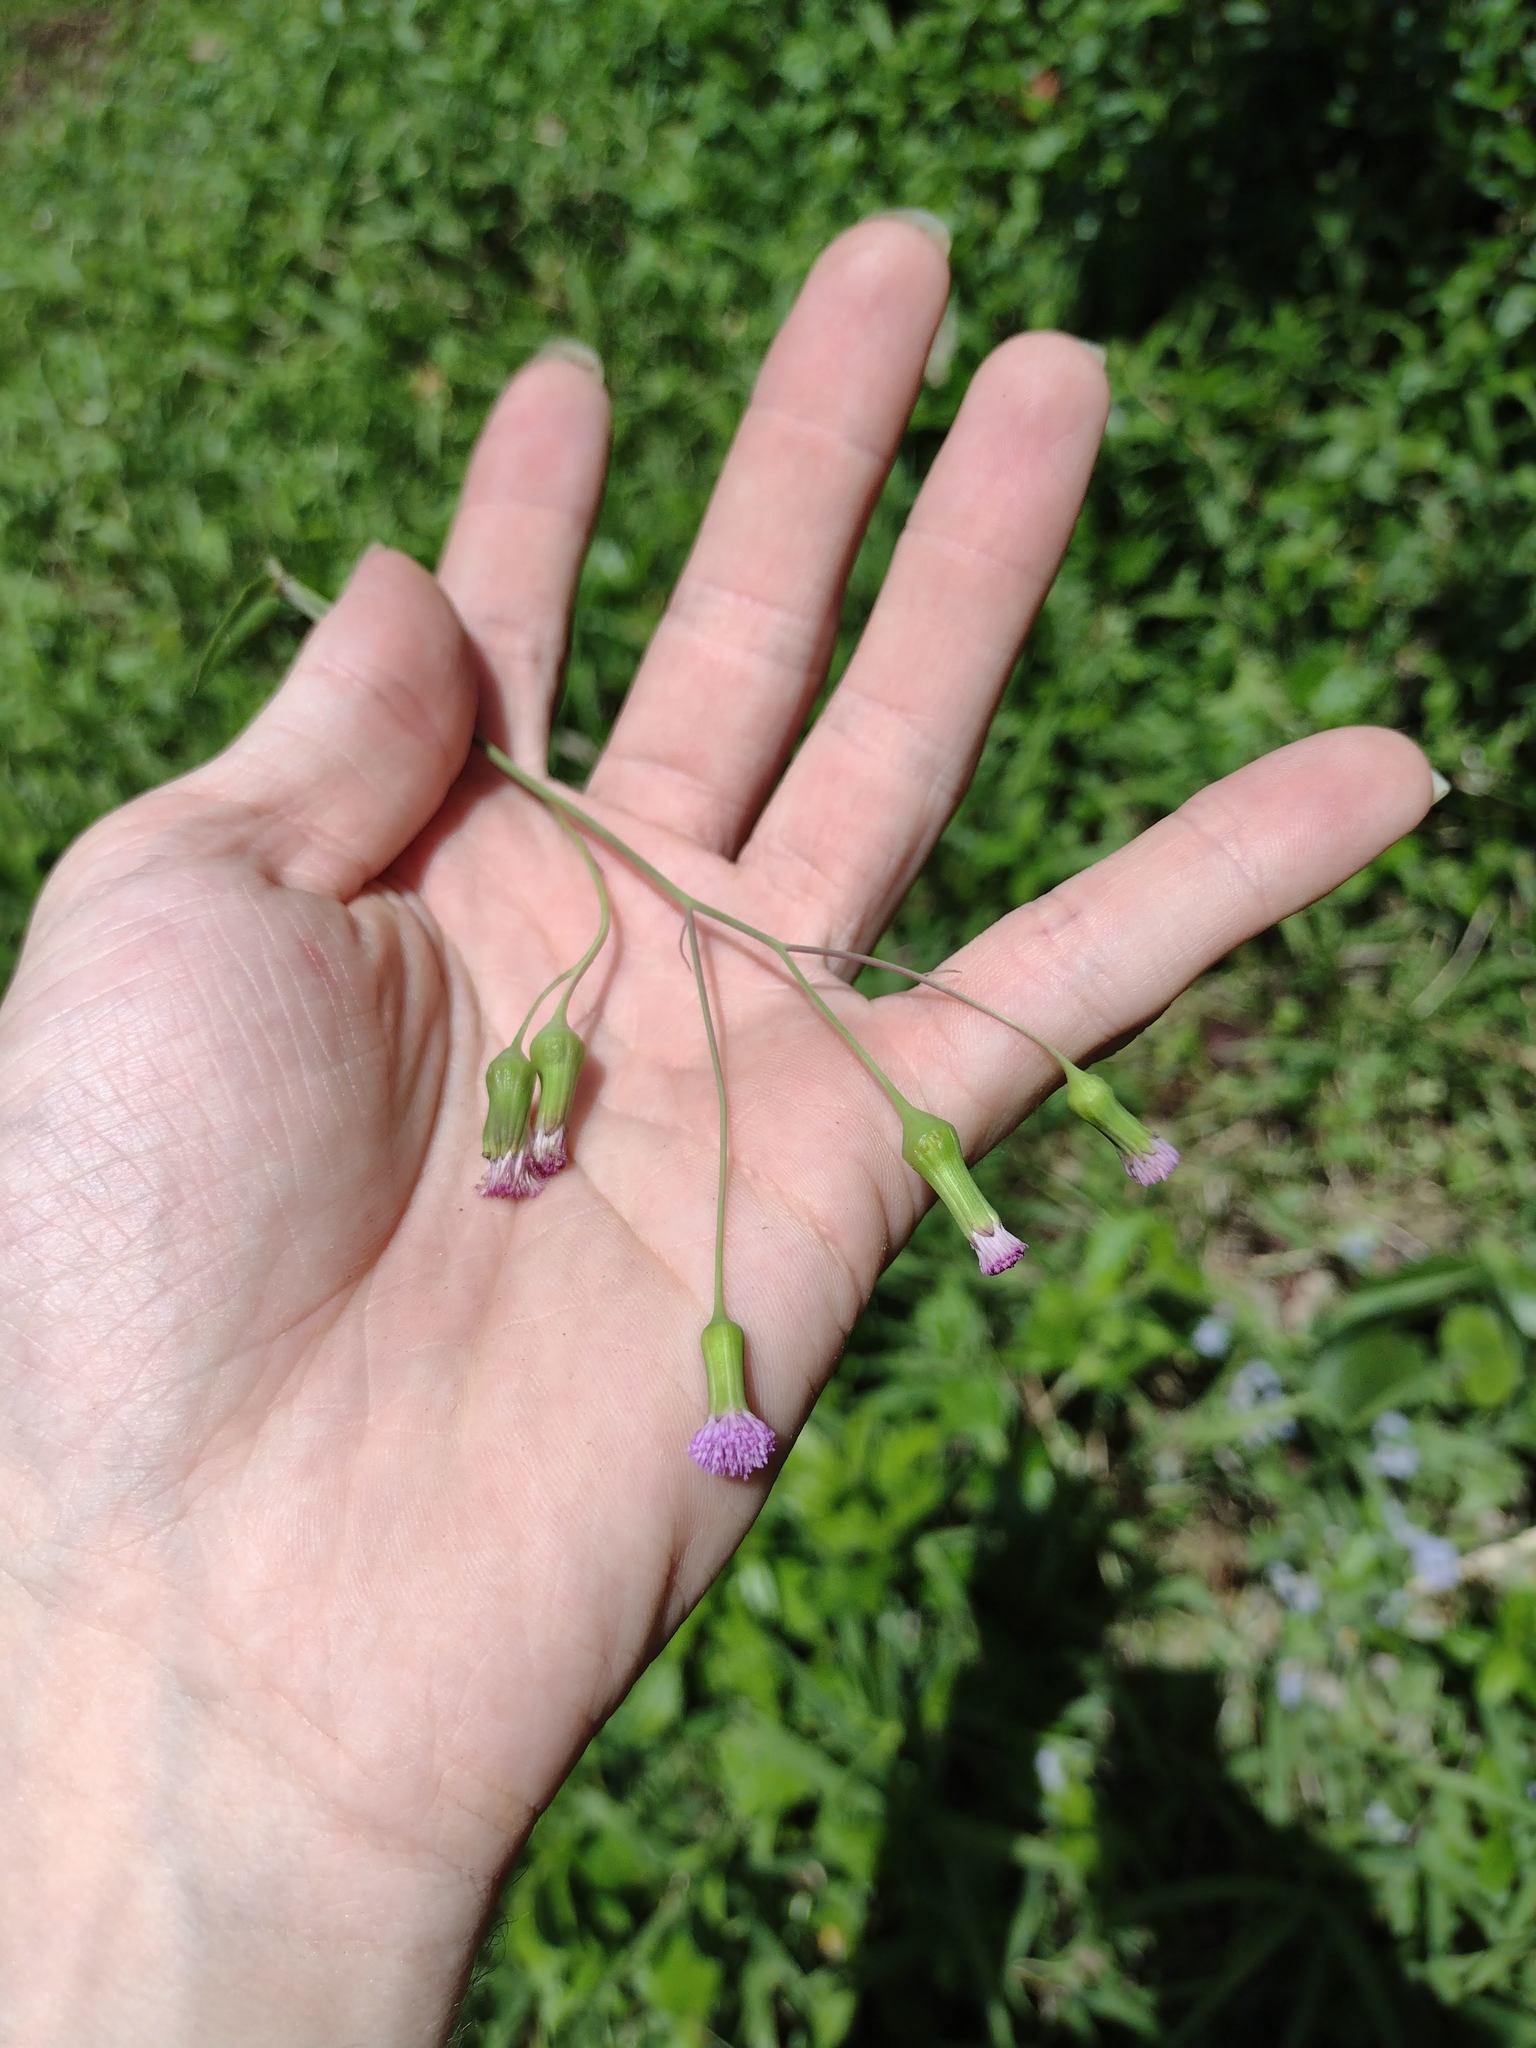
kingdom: Plantae
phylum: Tracheophyta
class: Magnoliopsida
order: Asterales
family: Asteraceae
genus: Emilia
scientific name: Emilia sonchifolia
